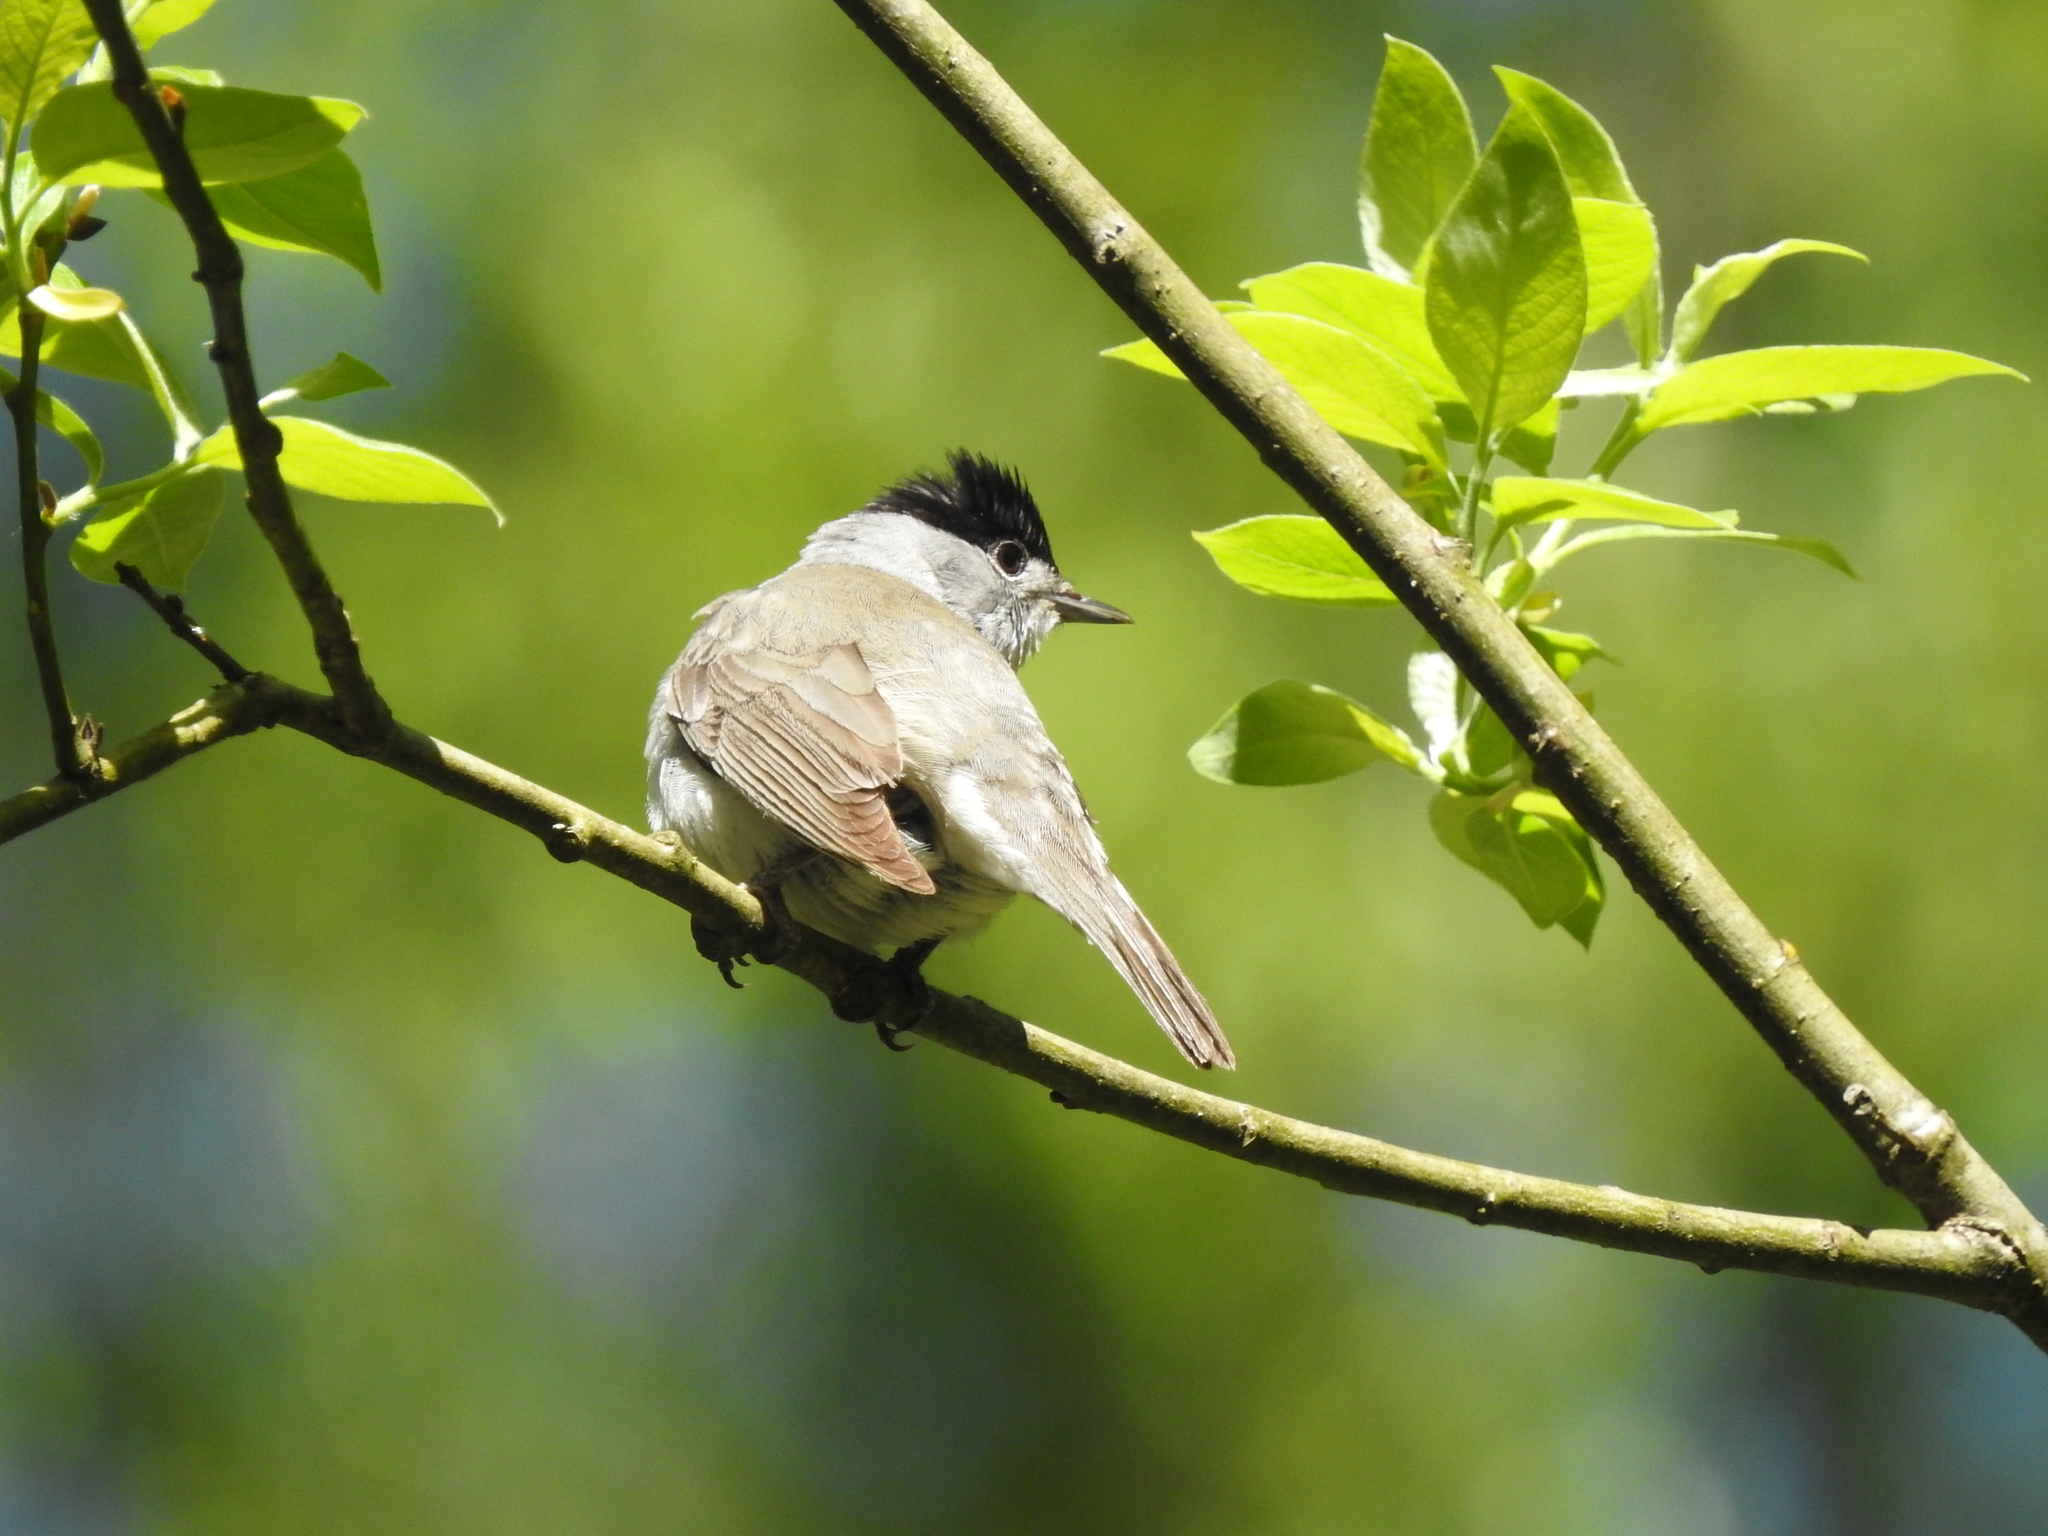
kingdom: Animalia
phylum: Chordata
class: Aves
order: Passeriformes
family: Sylviidae
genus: Sylvia
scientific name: Sylvia atricapilla
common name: Eurasian blackcap
